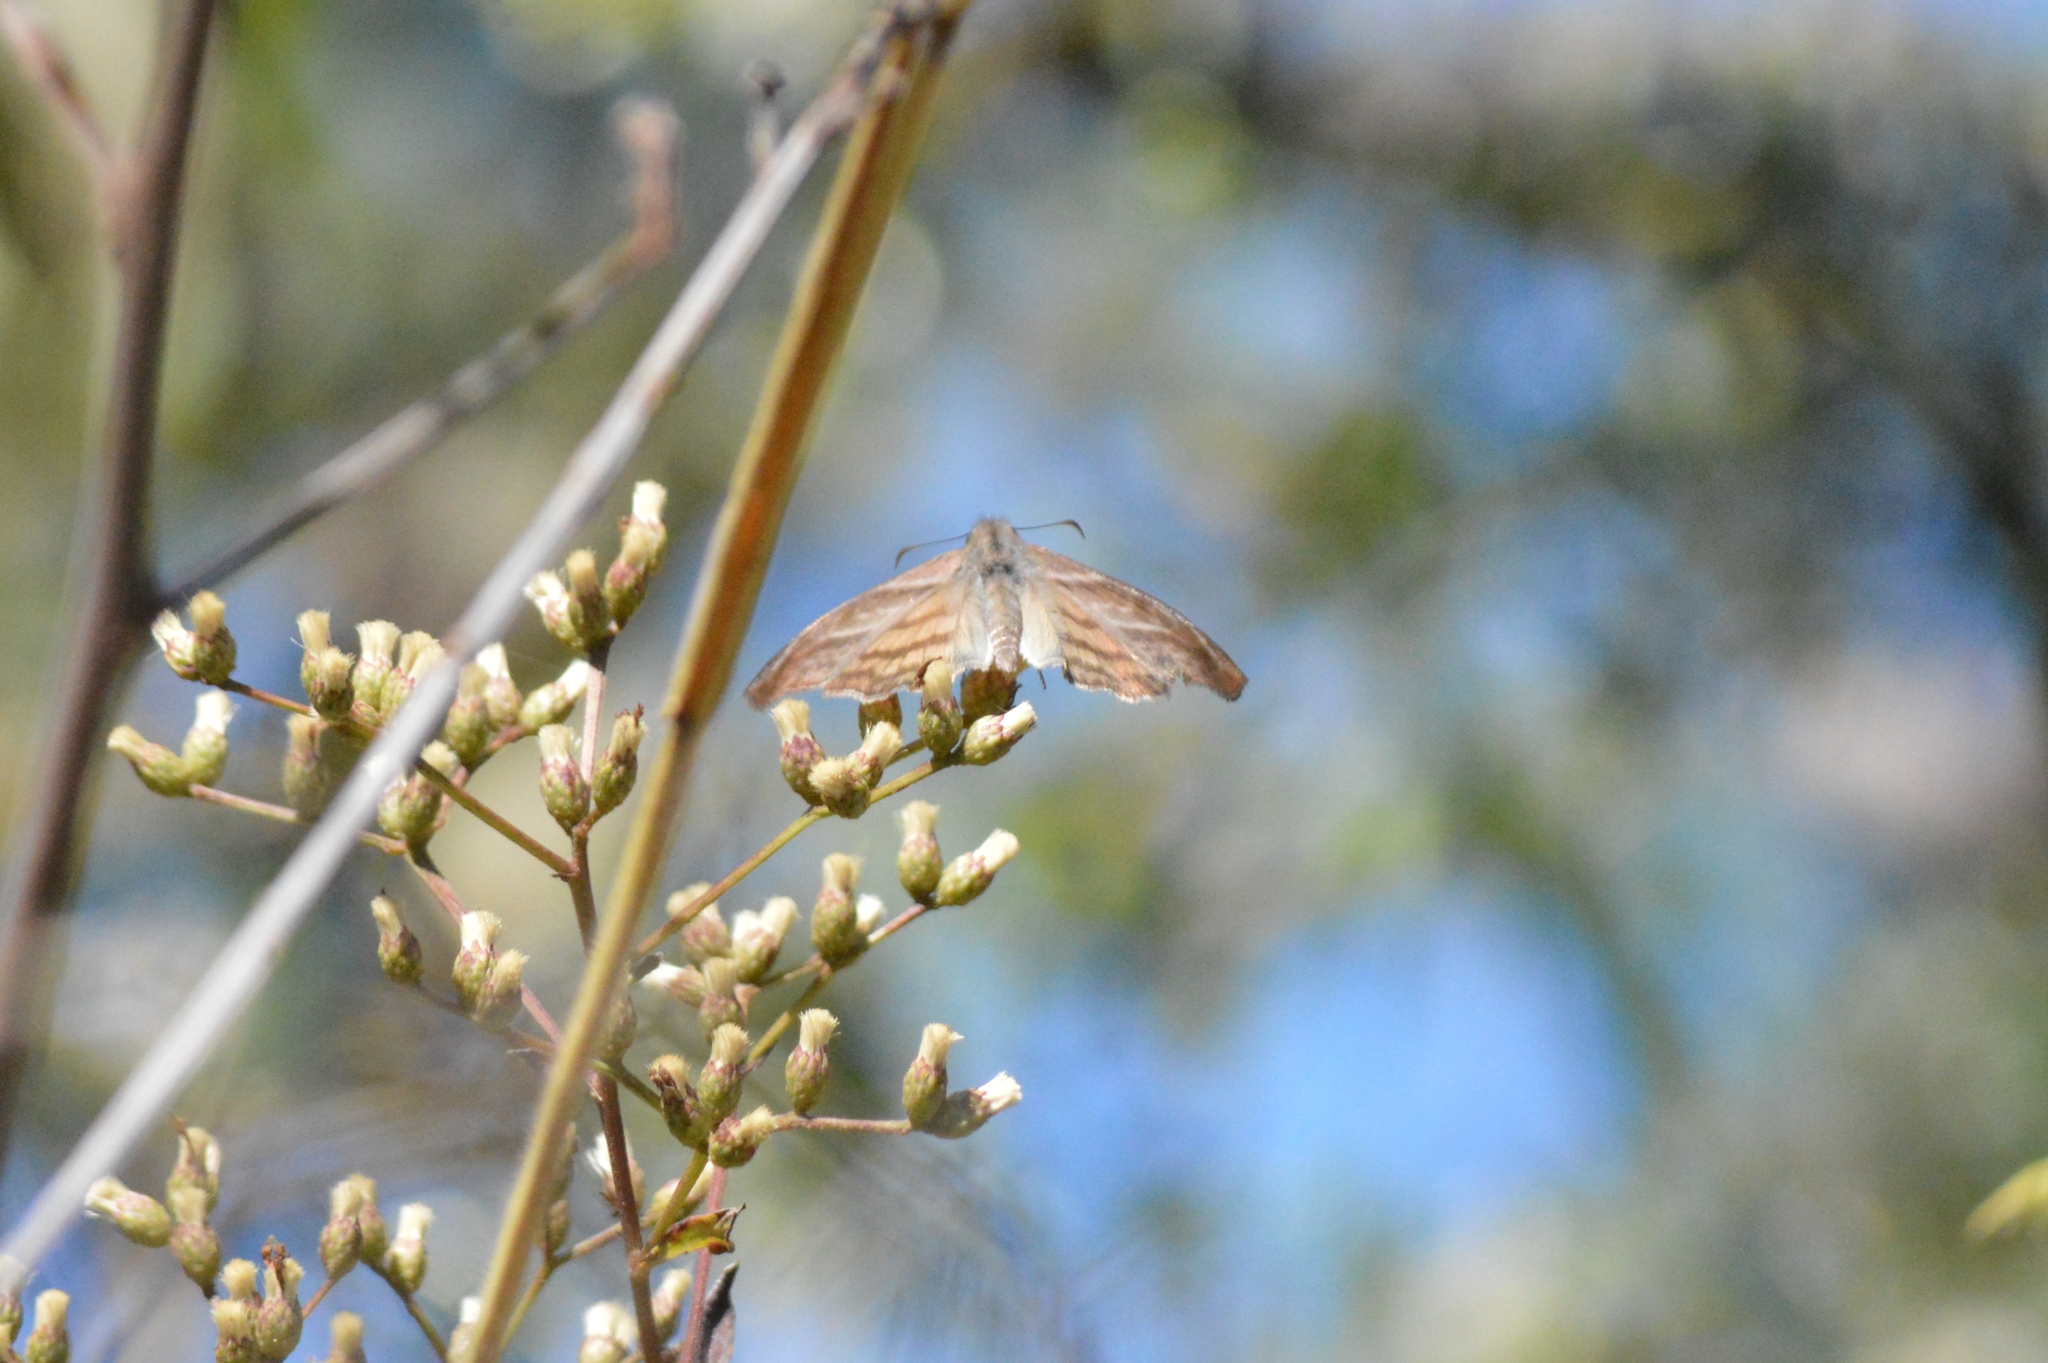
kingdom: Animalia
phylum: Arthropoda
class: Insecta
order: Lepidoptera
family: Hesperiidae
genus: Timochares
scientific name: Timochares trifasciata
